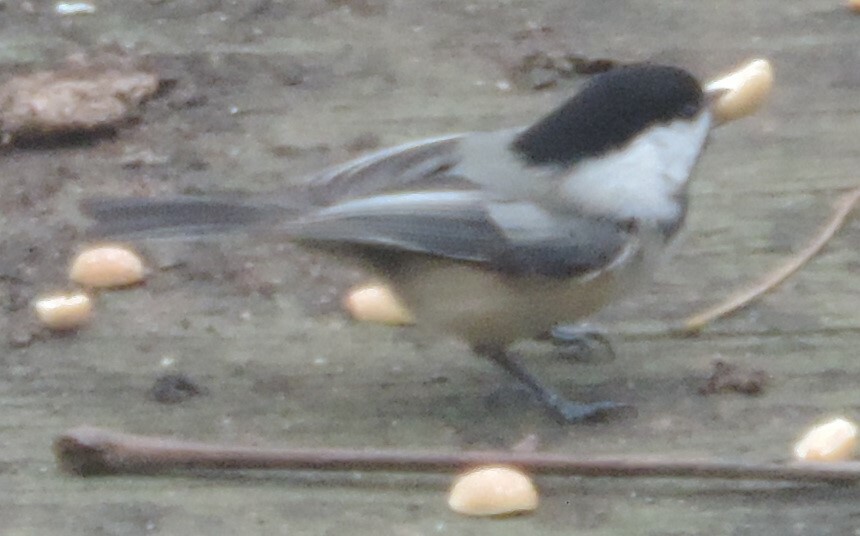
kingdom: Animalia
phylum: Chordata
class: Aves
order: Passeriformes
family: Paridae
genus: Poecile
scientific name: Poecile atricapillus
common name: Black-capped chickadee
